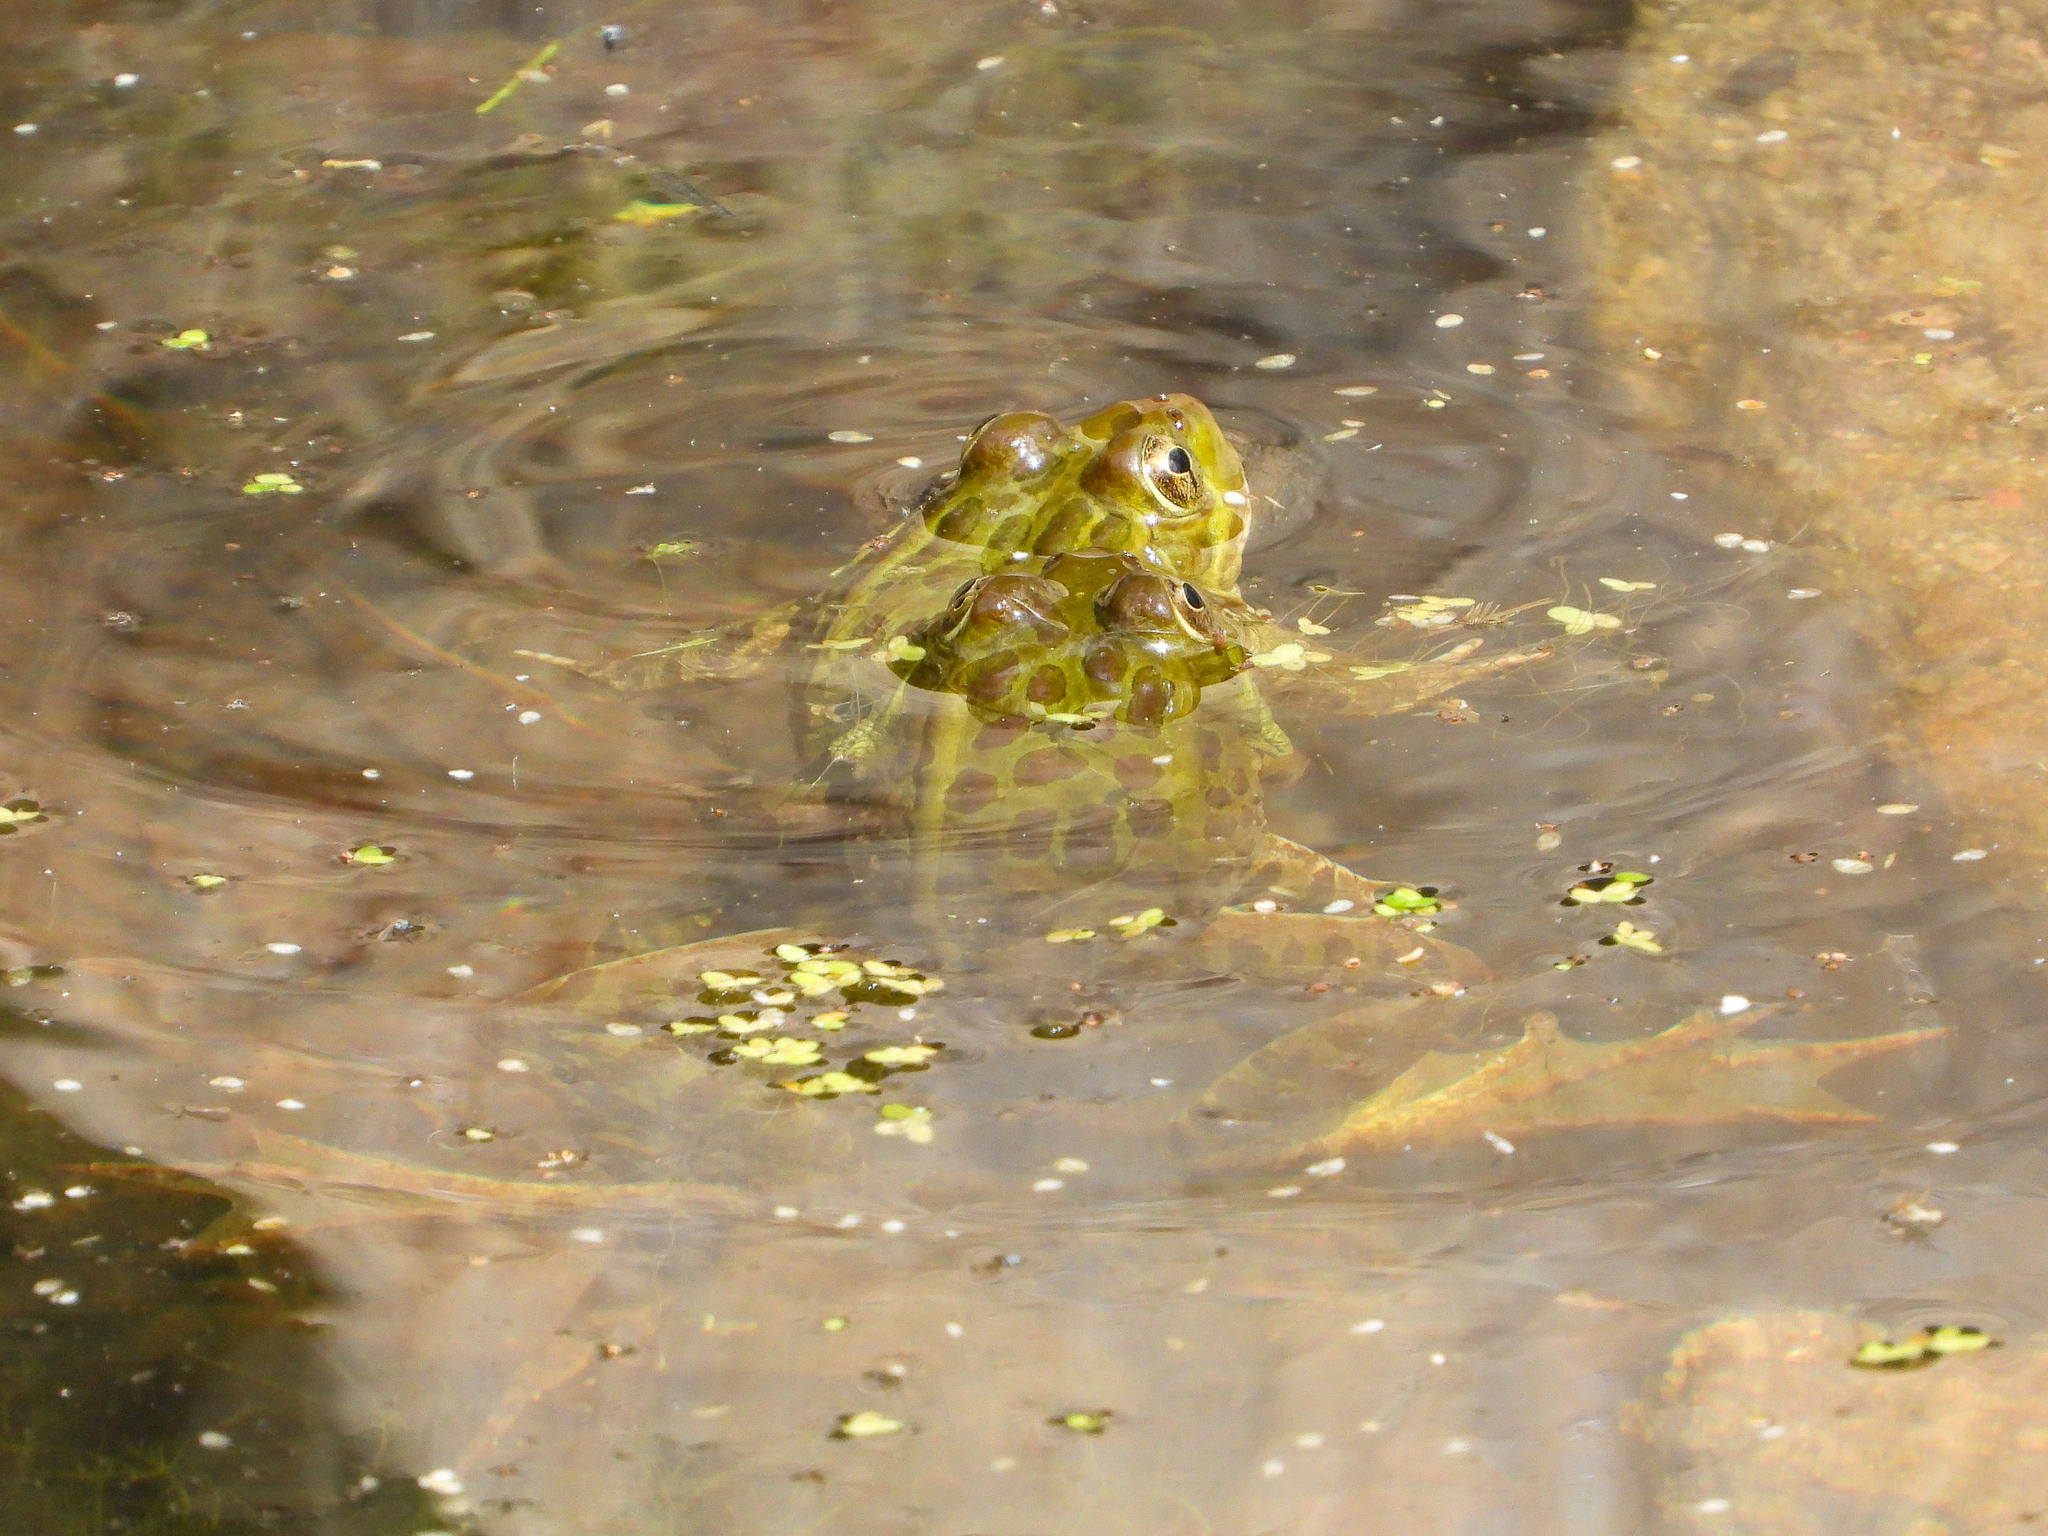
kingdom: Animalia
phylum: Chordata
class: Amphibia
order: Anura
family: Ranidae
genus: Lithobates
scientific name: Lithobates chiricahuensis
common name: Chiricahua leopard frog
